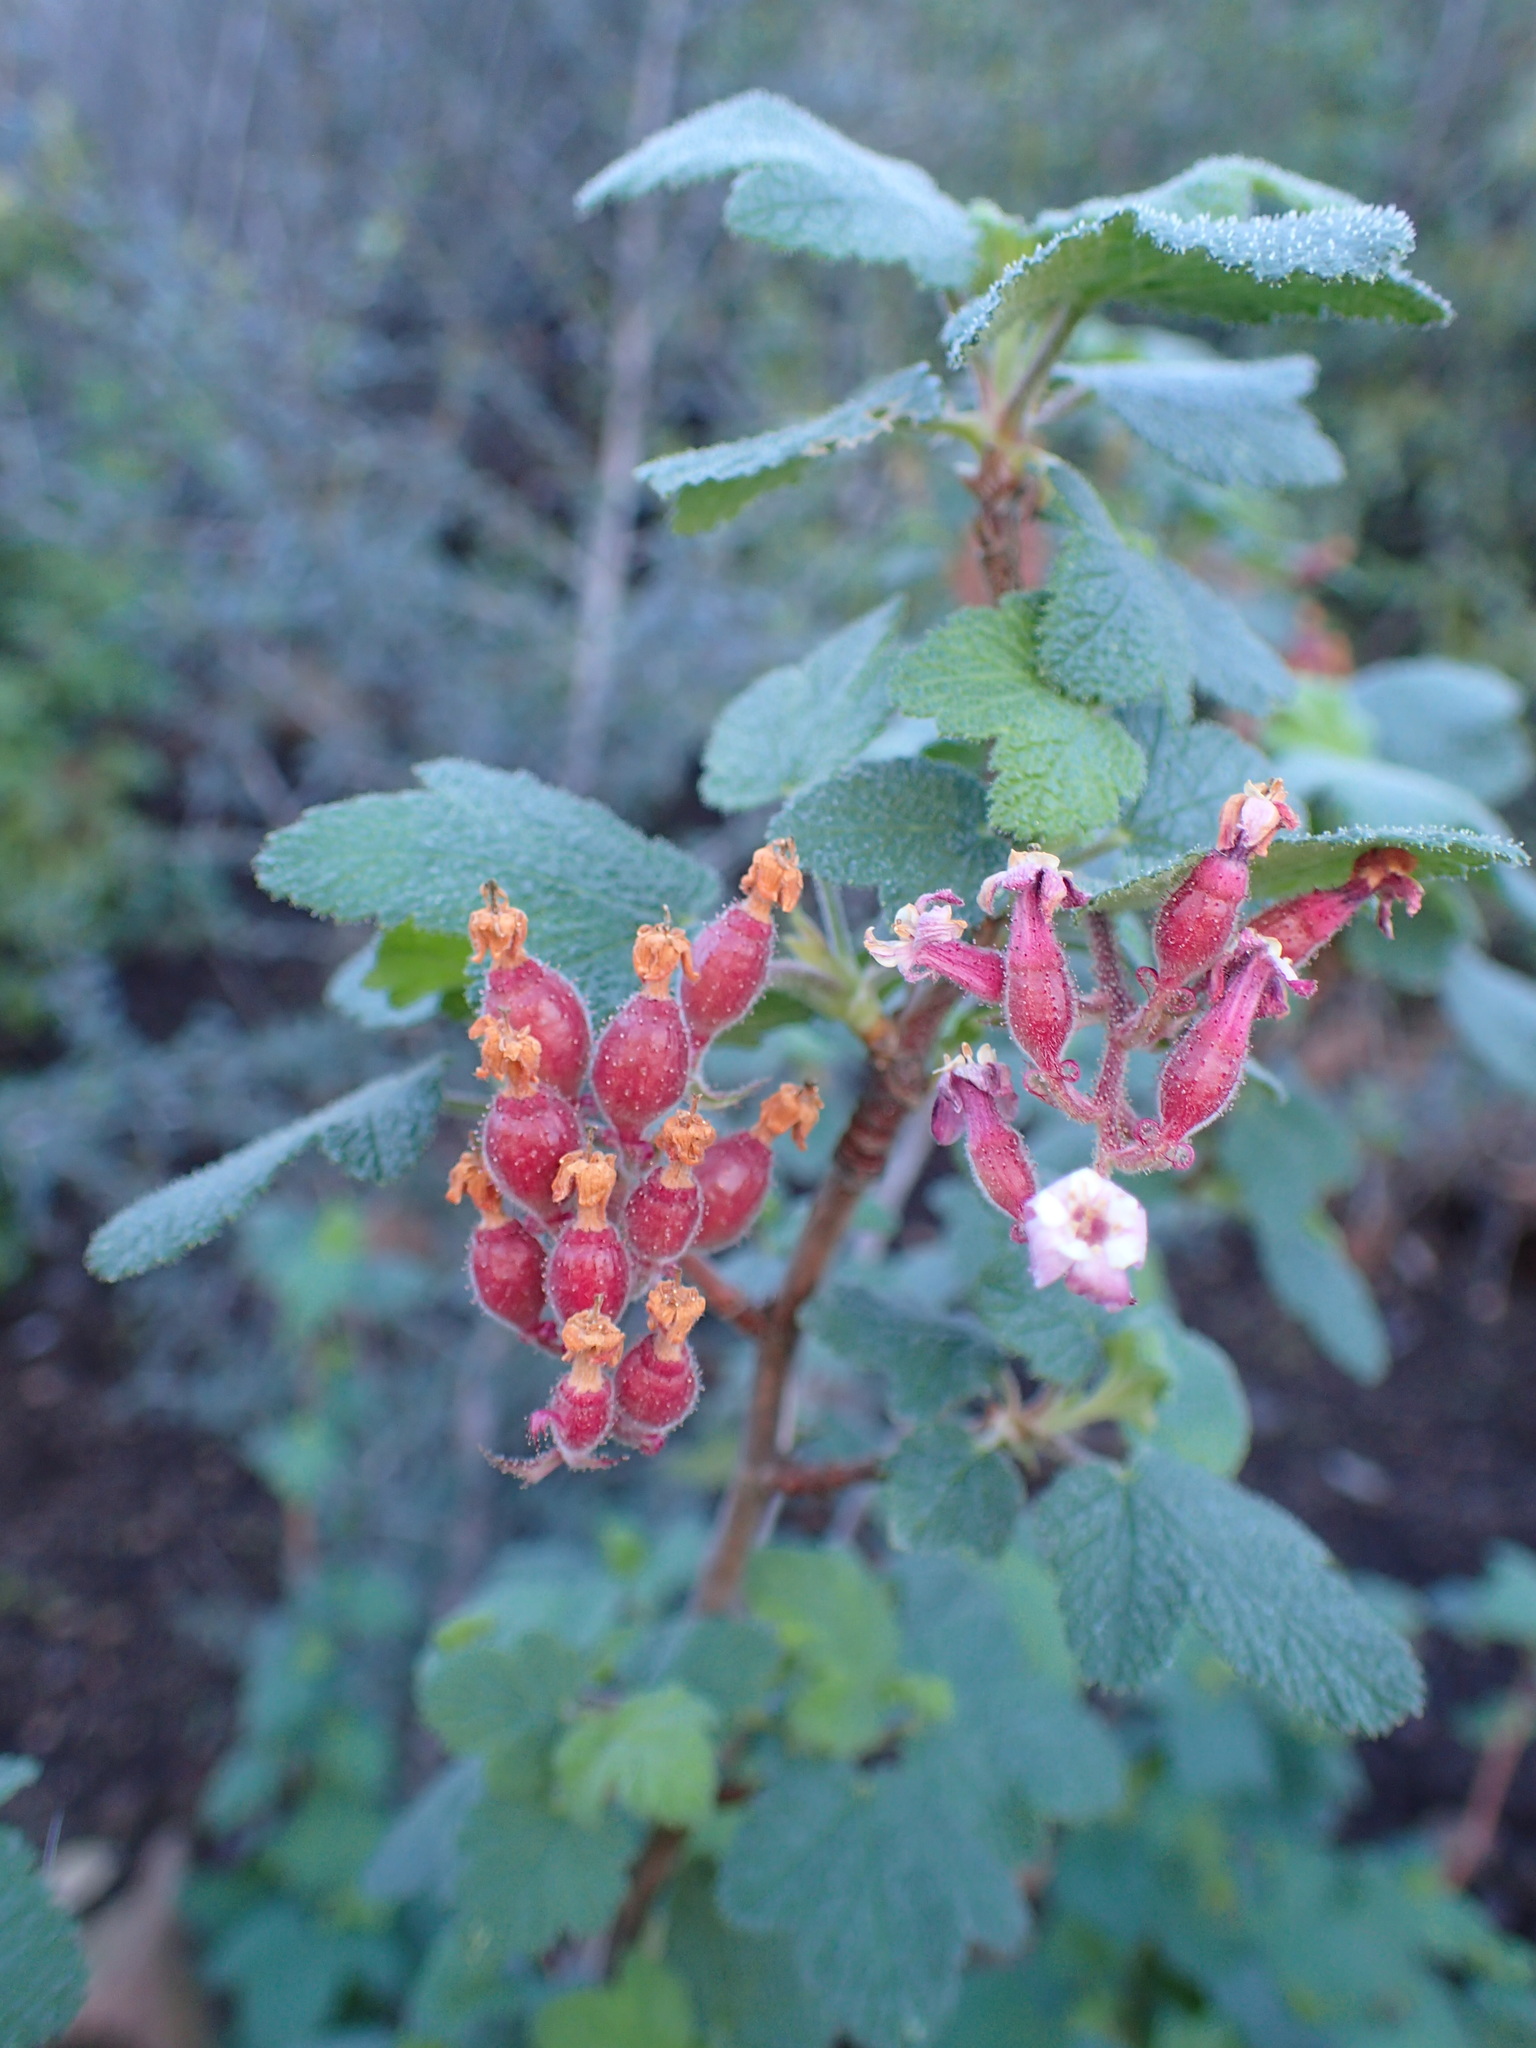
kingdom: Plantae
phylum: Tracheophyta
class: Magnoliopsida
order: Saxifragales
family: Grossulariaceae
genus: Ribes
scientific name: Ribes malvaceum
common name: Chaparral currant
